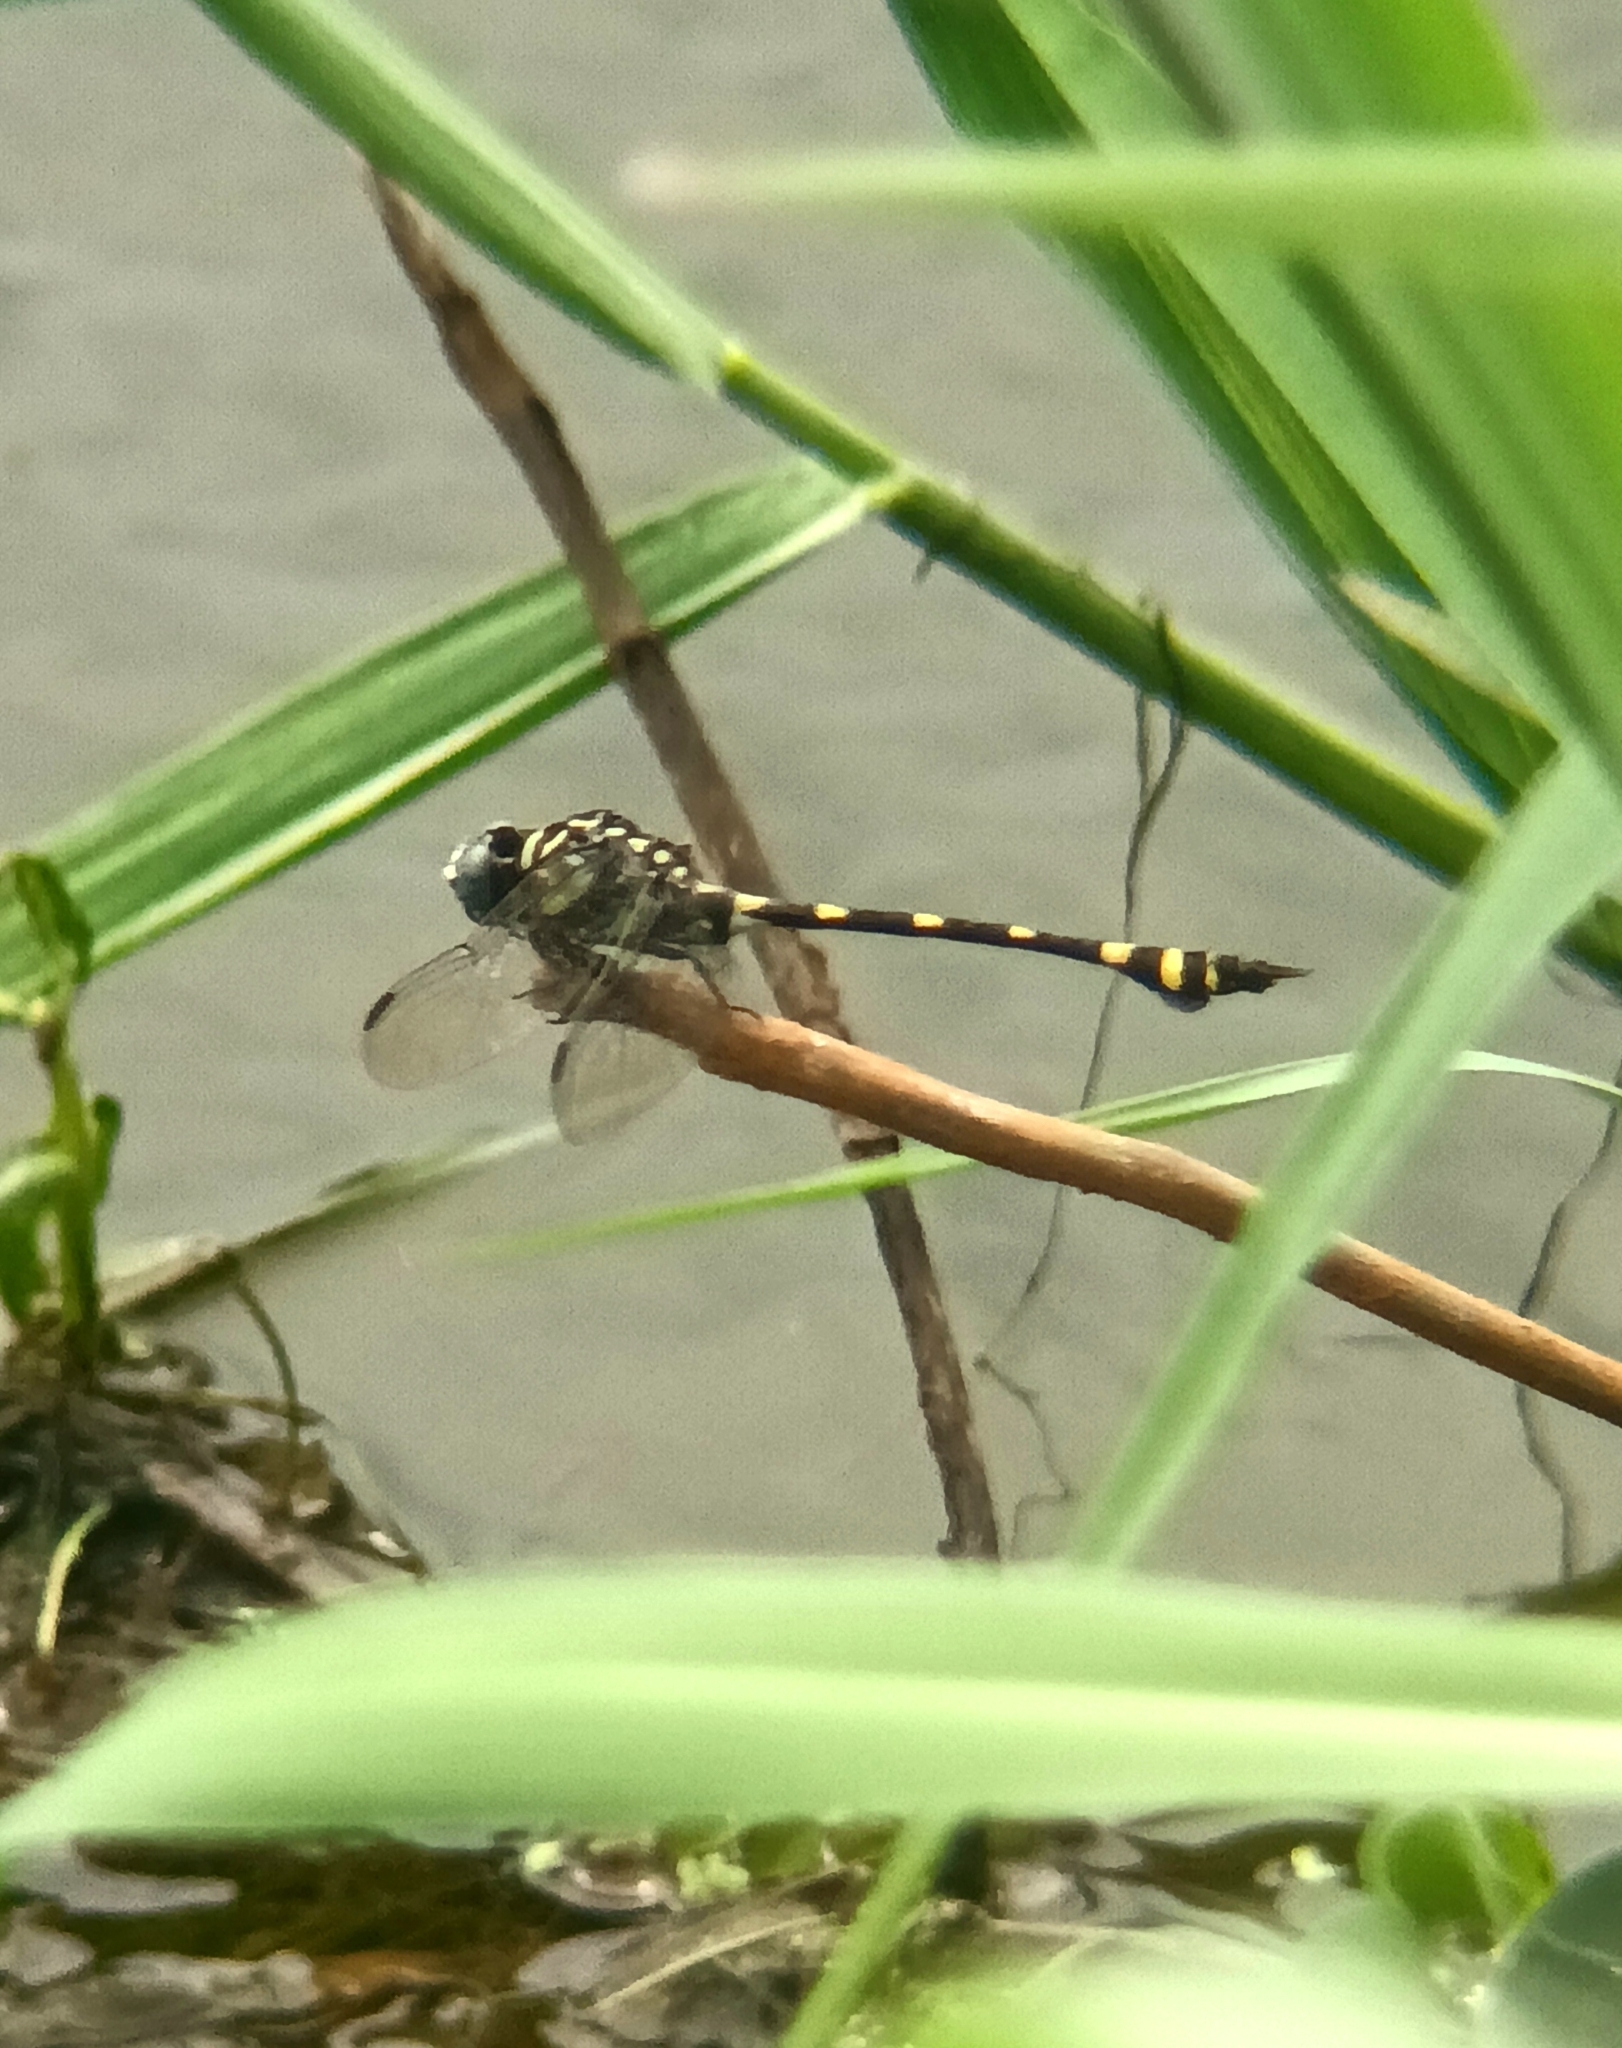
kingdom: Animalia
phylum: Arthropoda
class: Insecta
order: Odonata
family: Gomphidae
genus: Ictinogomphus
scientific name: Ictinogomphus rapax
